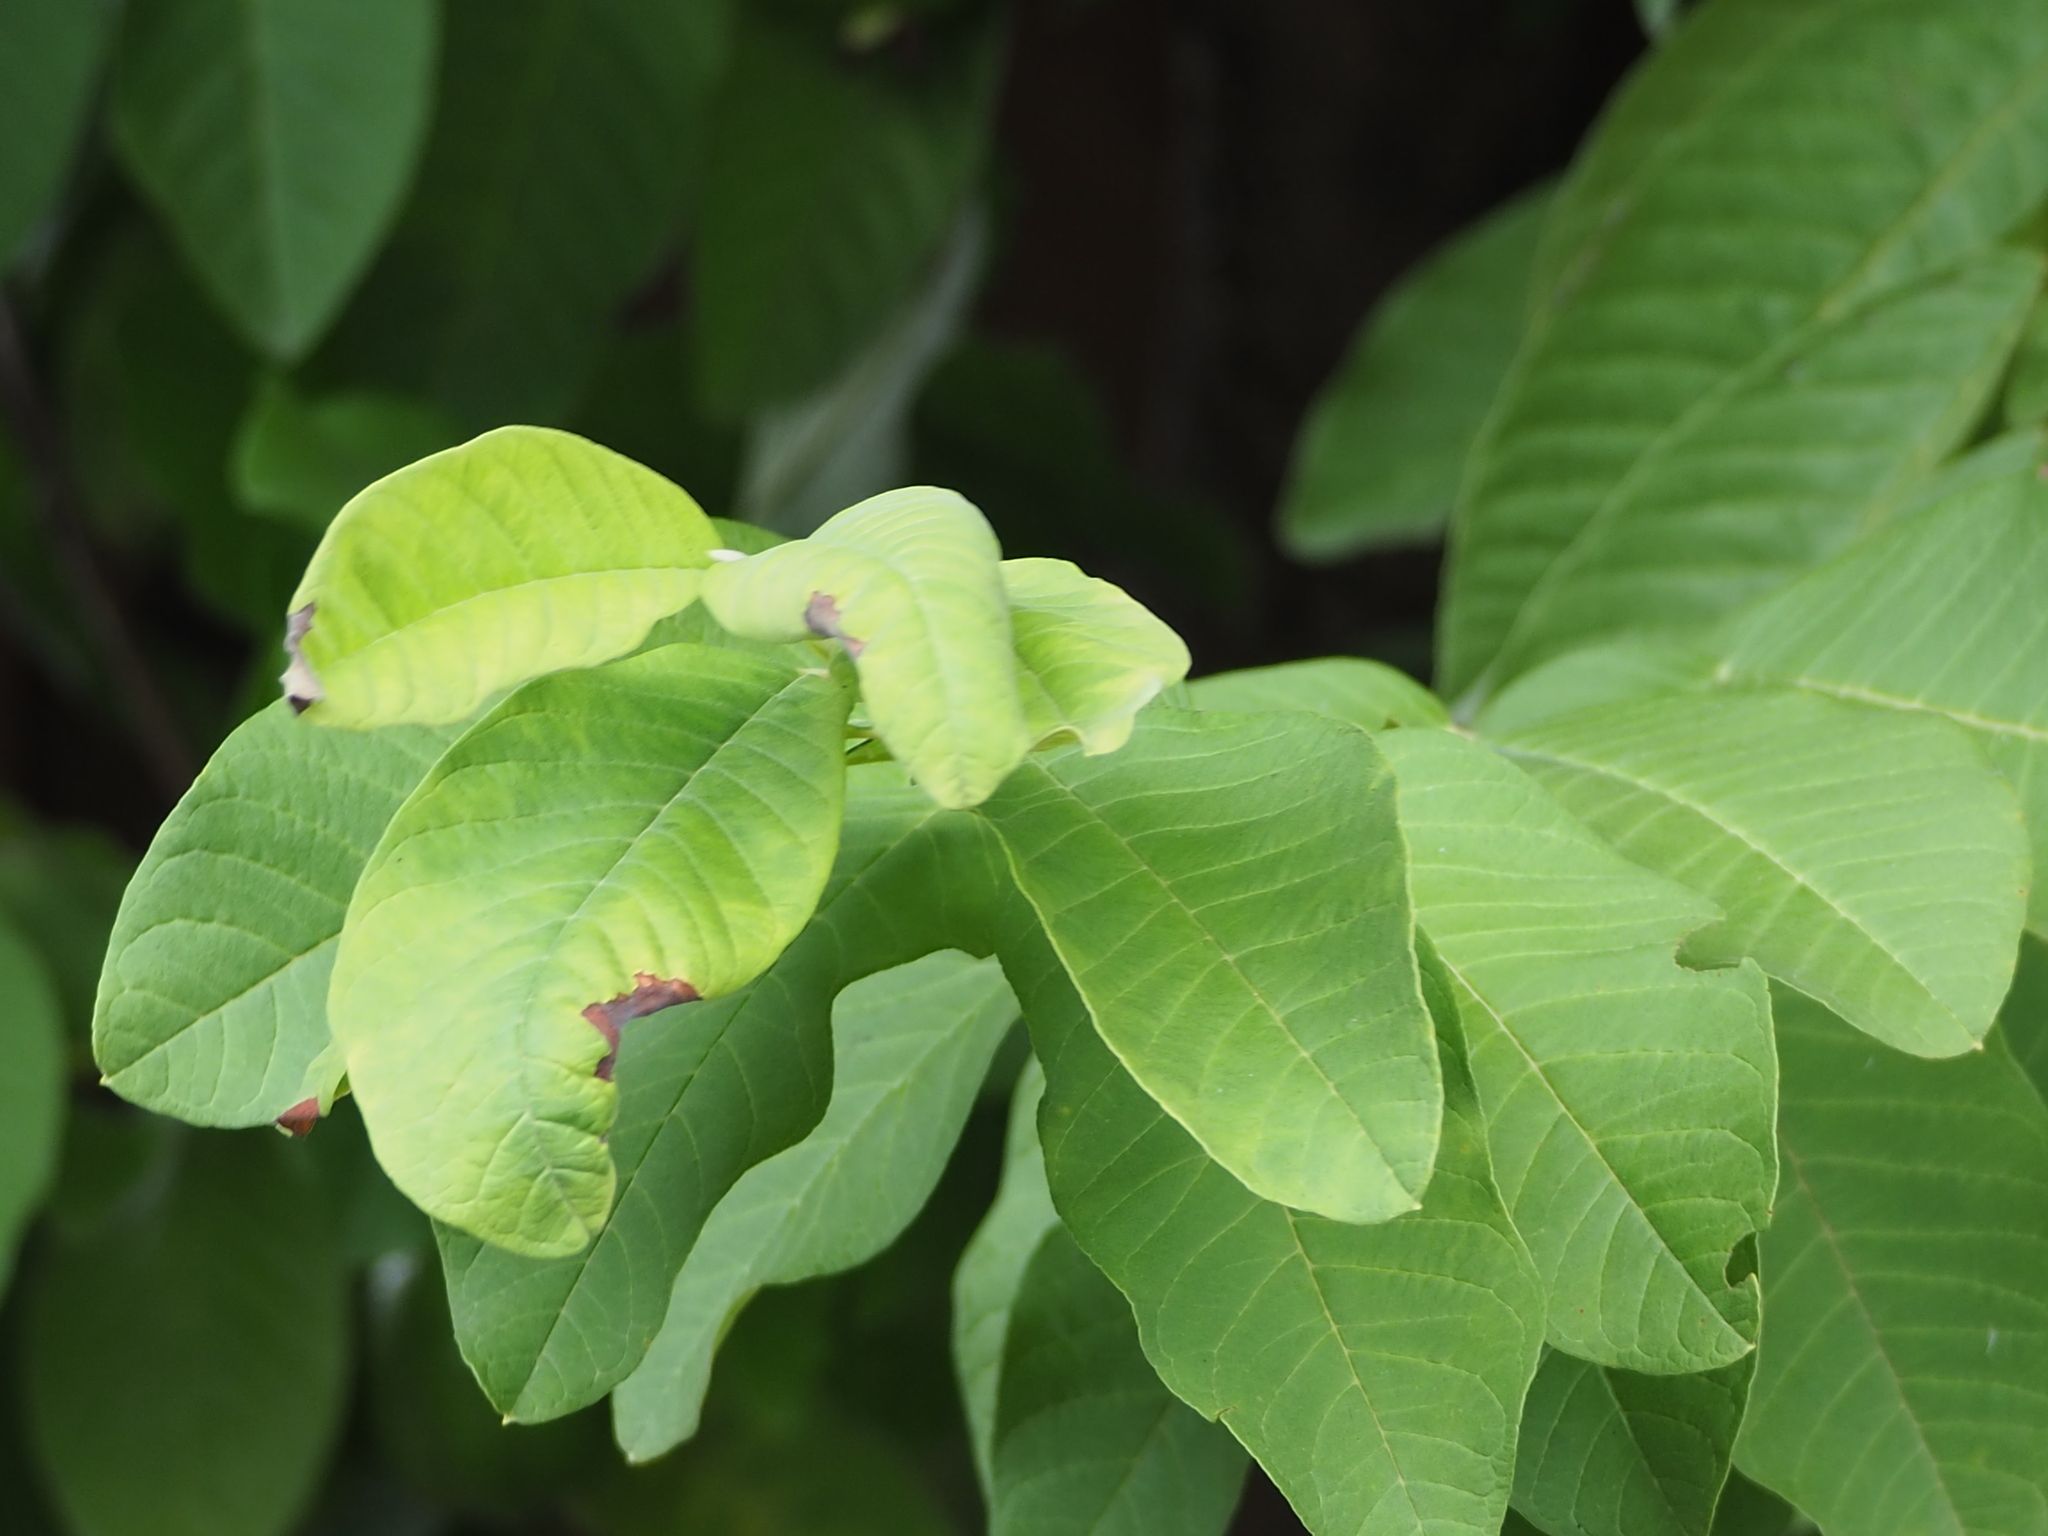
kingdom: Plantae
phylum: Tracheophyta
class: Magnoliopsida
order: Myrtales
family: Myrtaceae
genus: Psidium
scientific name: Psidium guajava
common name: Guava
